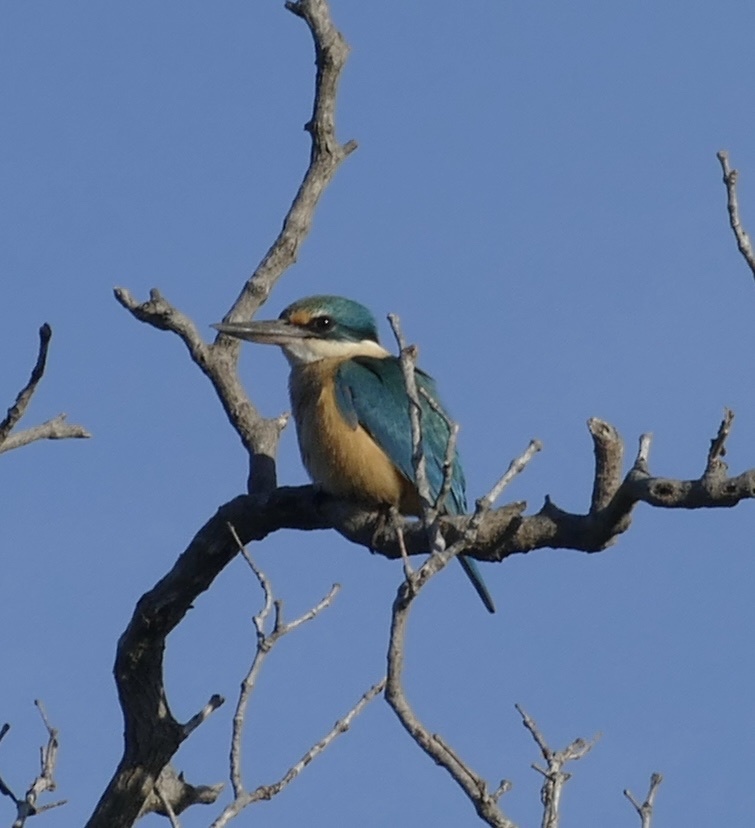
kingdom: Animalia
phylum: Chordata
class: Aves
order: Coraciiformes
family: Alcedinidae
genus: Todiramphus
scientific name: Todiramphus sanctus
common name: Sacred kingfisher
